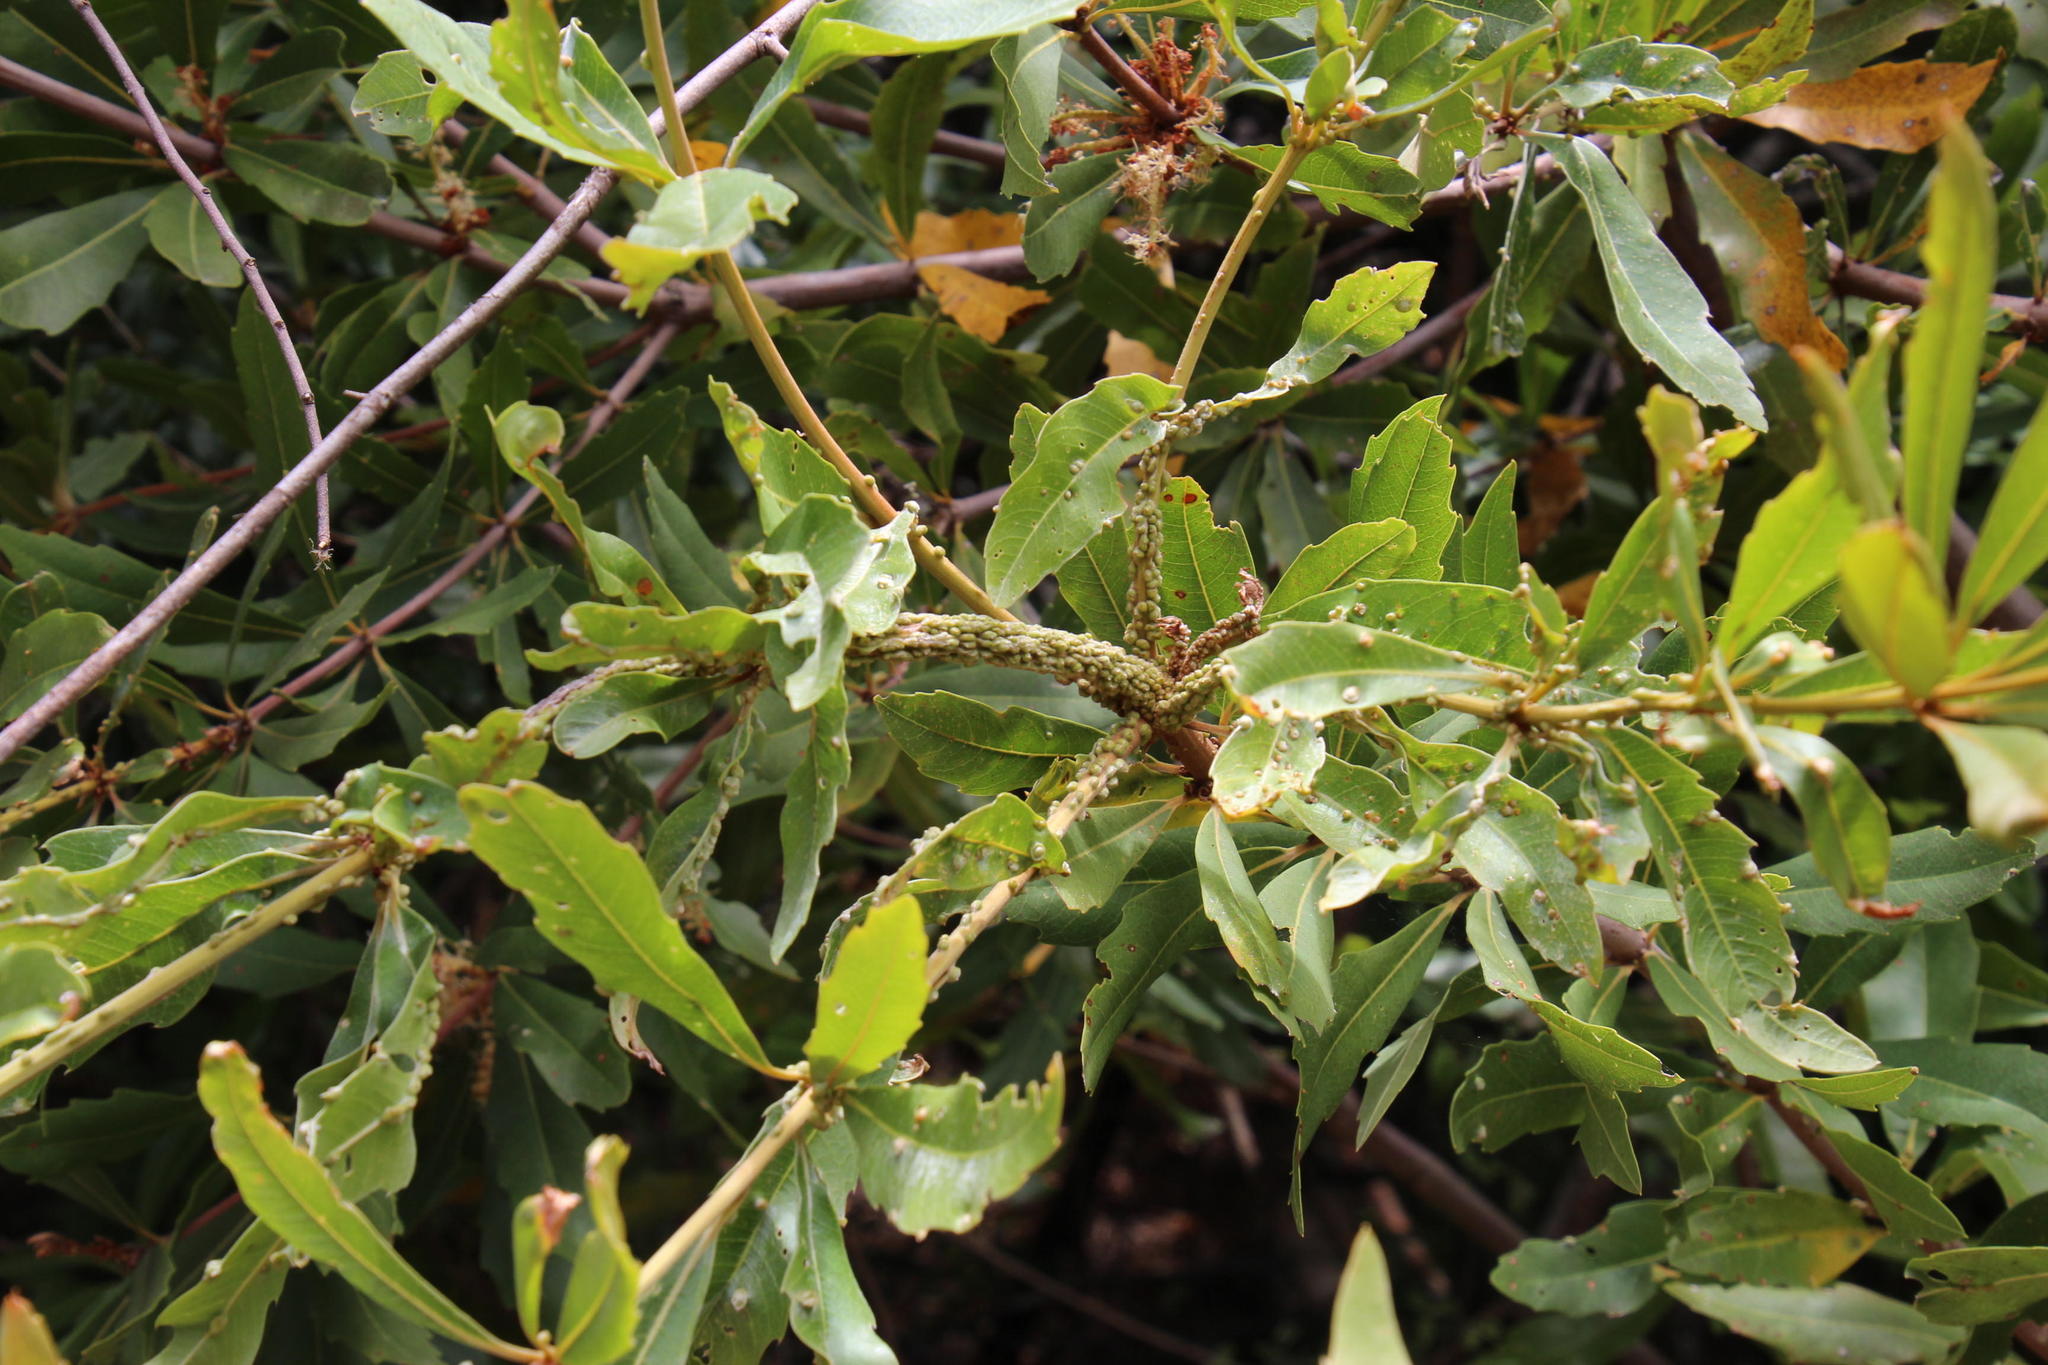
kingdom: Animalia
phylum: Arthropoda
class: Arachnida
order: Trombidiformes
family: Eriophyidae
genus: Aceria
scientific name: Aceria
